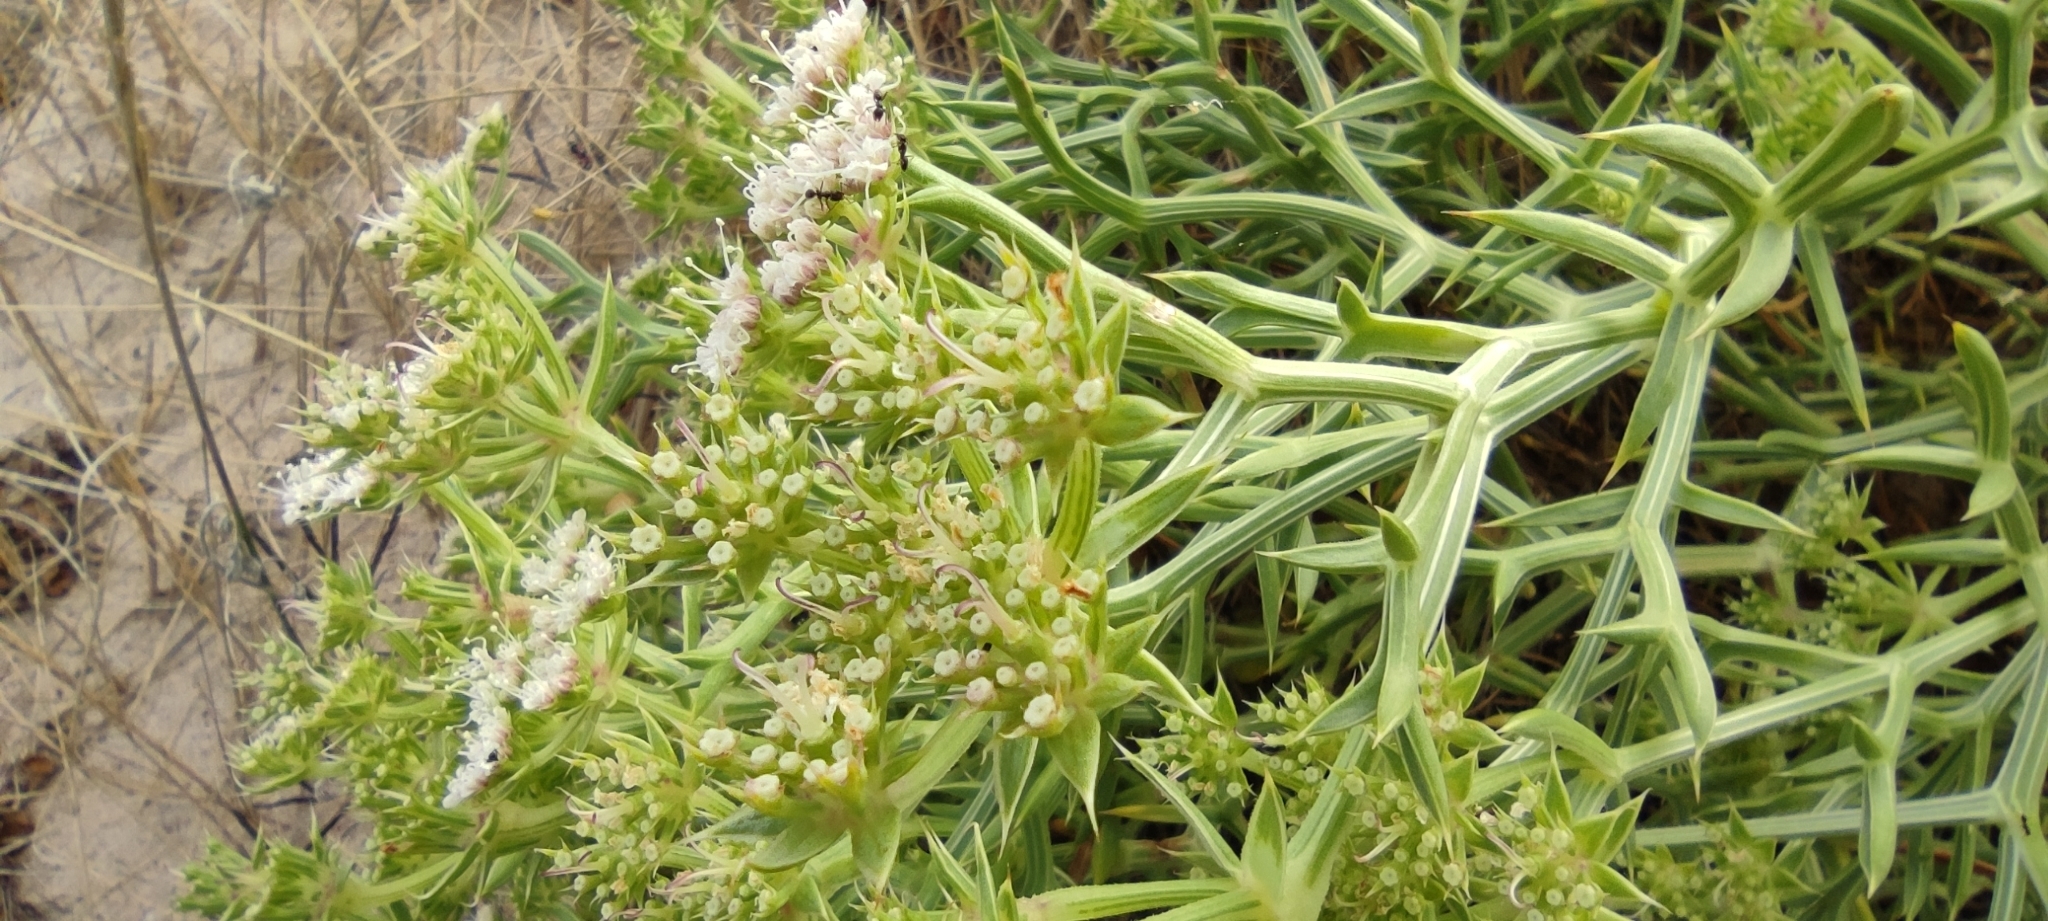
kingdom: Plantae
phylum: Tracheophyta
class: Magnoliopsida
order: Apiales
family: Apiaceae
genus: Echinophora
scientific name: Echinophora spinosa
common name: Prickly samphire
